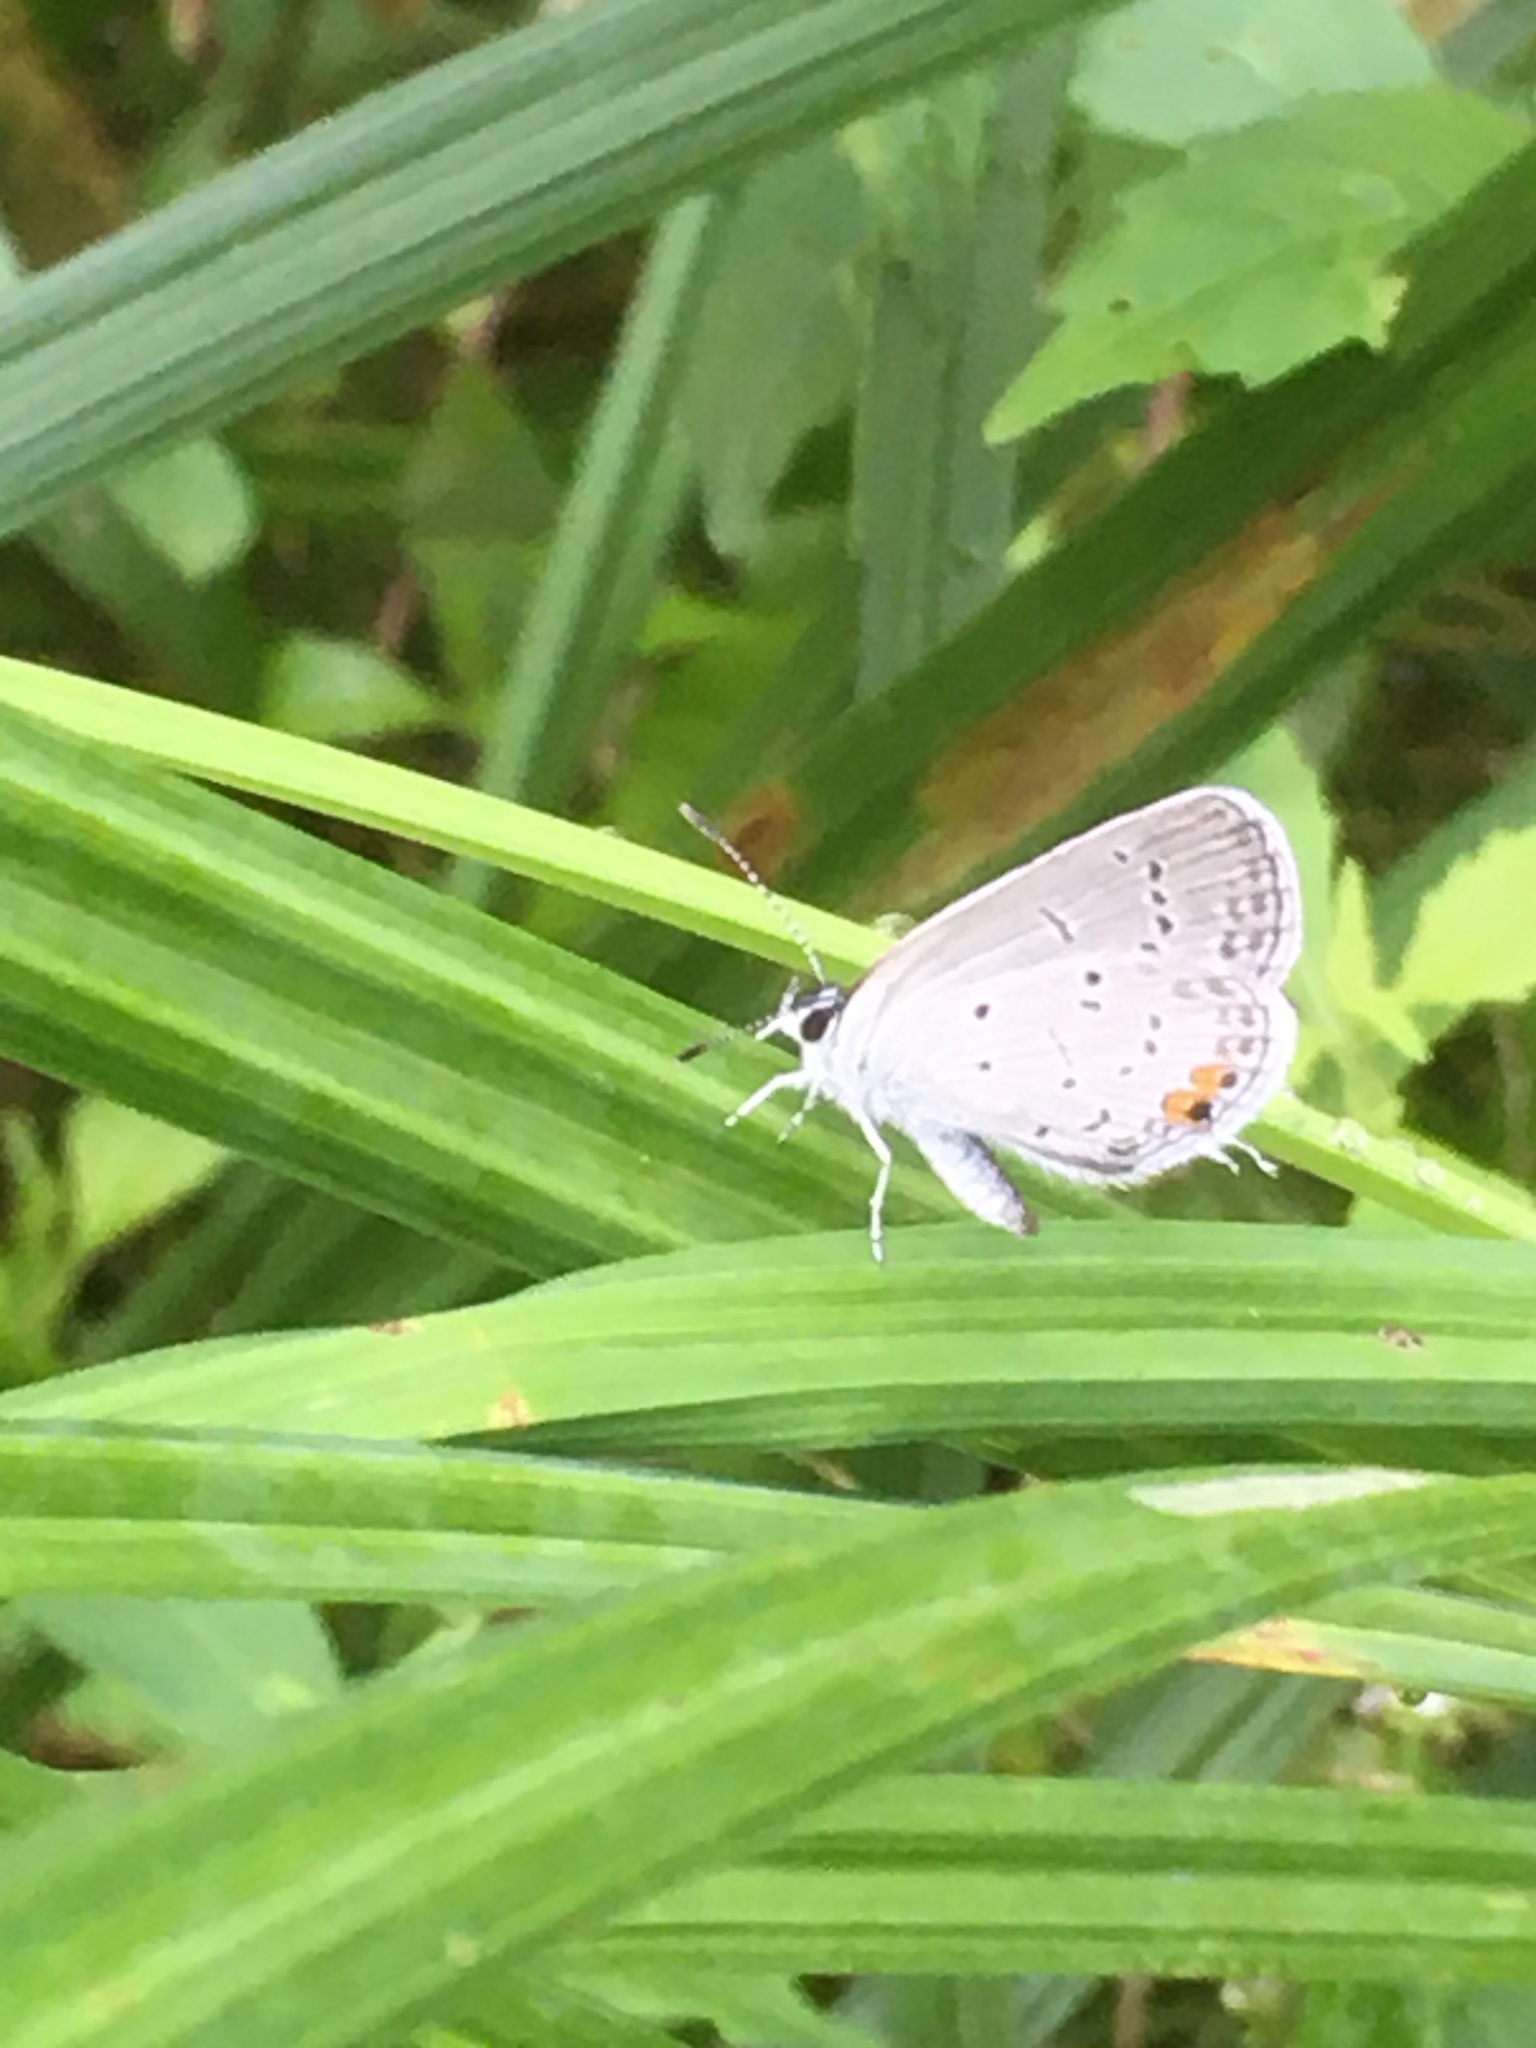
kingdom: Animalia
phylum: Arthropoda
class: Insecta
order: Lepidoptera
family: Lycaenidae
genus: Elkalyce
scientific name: Elkalyce comyntas
